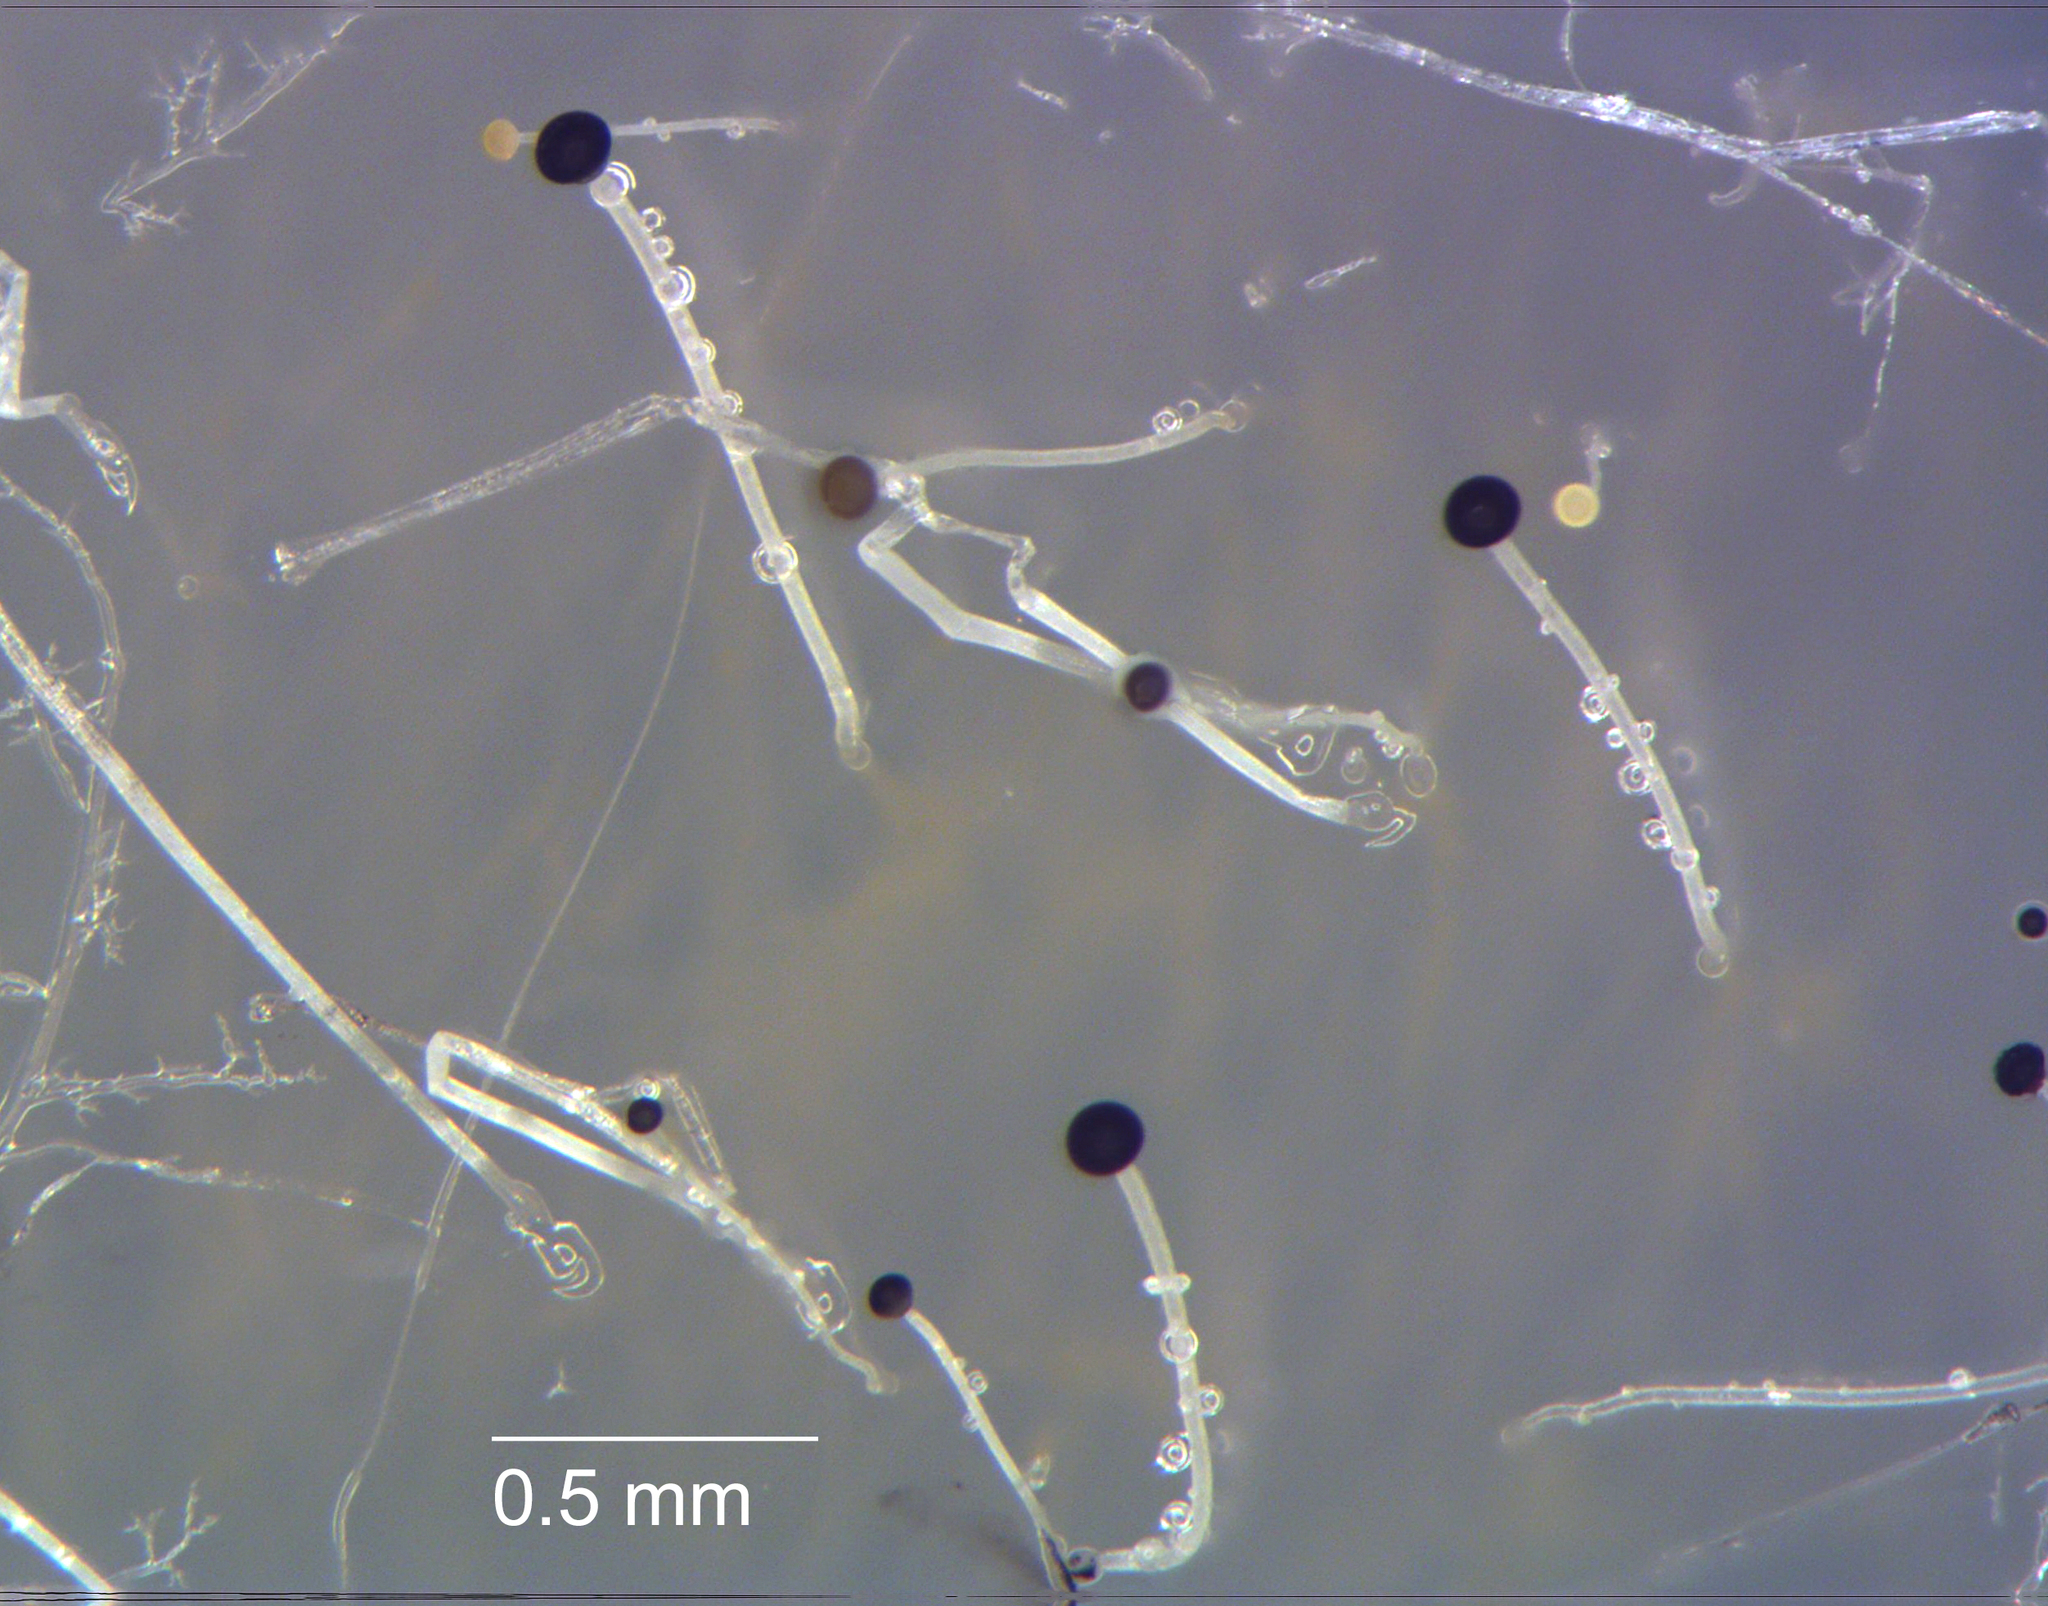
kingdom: Fungi
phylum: Mucoromycota
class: Mucoromycetes
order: Mucorales
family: Mucoraceae
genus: Pilaira
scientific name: Pilaira anomala
